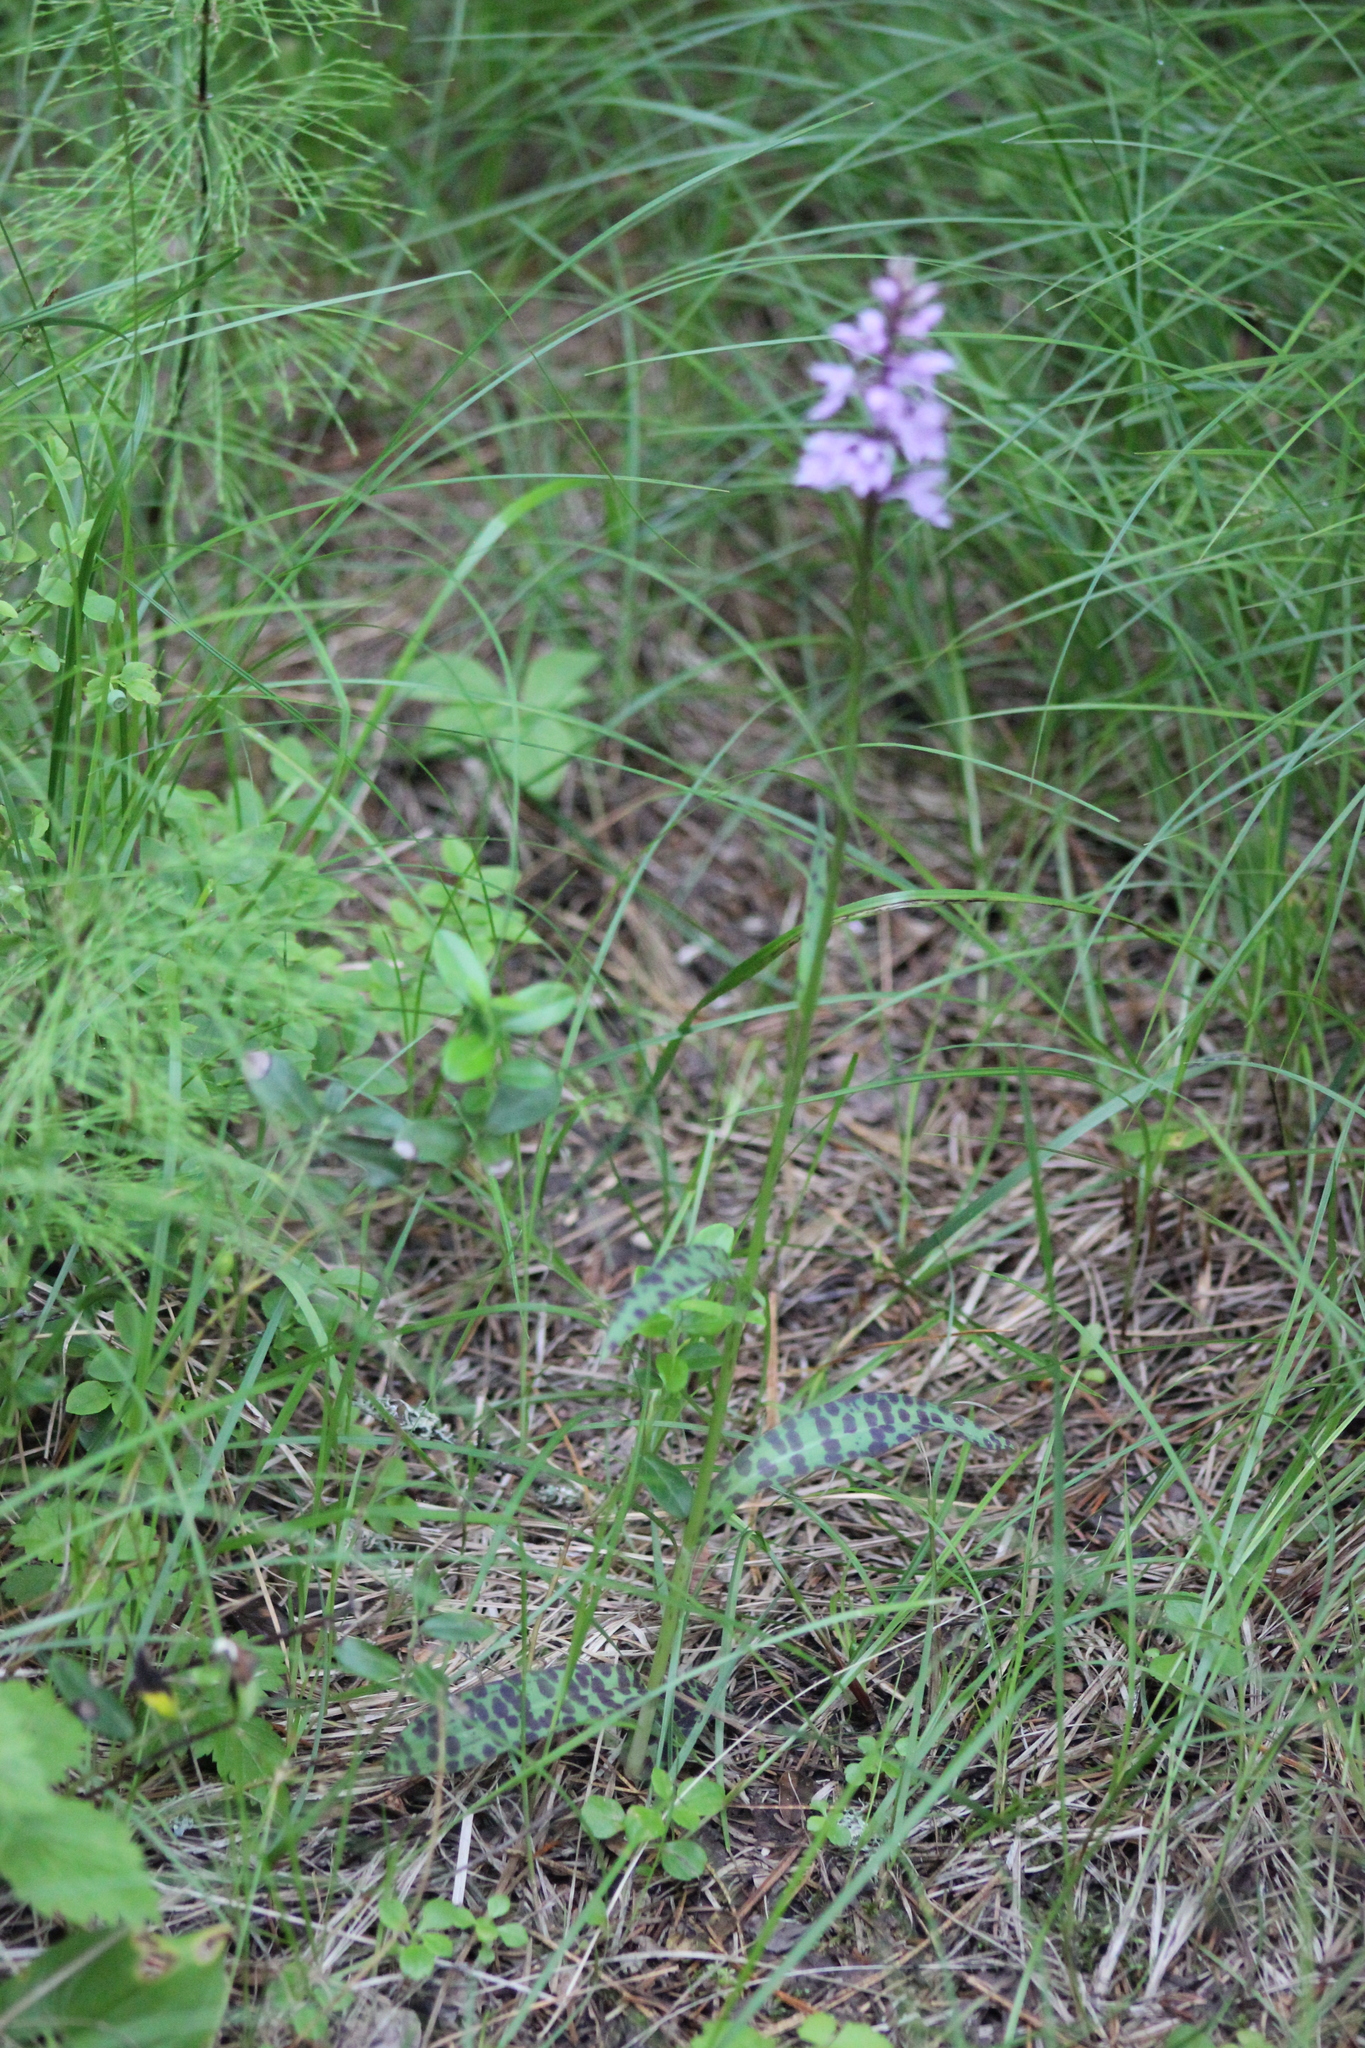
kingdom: Plantae
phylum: Tracheophyta
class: Liliopsida
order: Asparagales
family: Orchidaceae
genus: Dactylorhiza
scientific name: Dactylorhiza maculata
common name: Heath spotted-orchid
